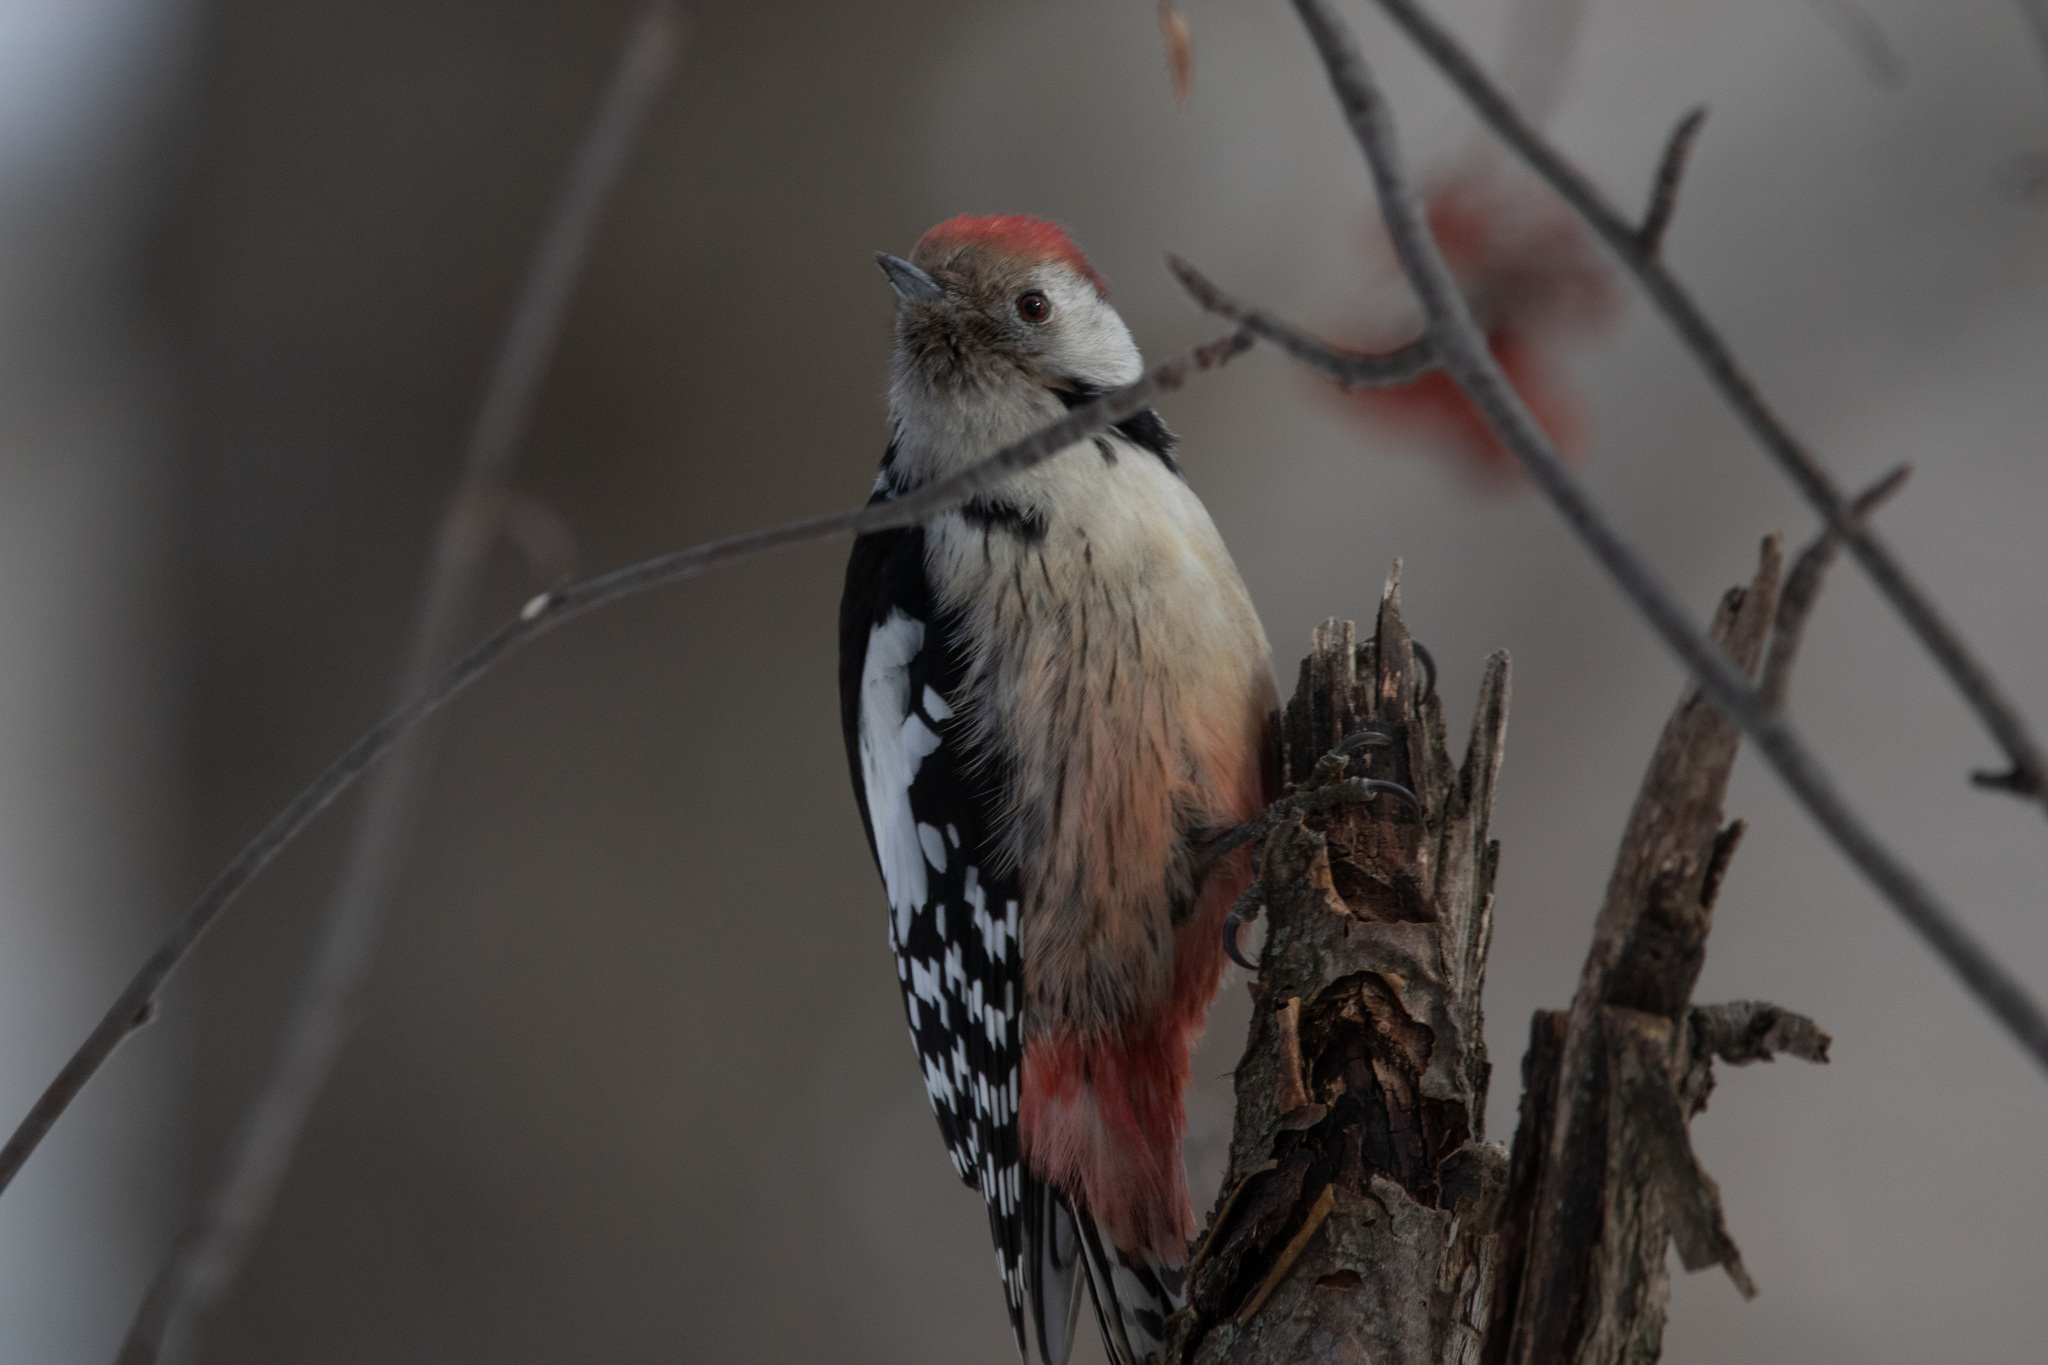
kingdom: Animalia
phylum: Chordata
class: Aves
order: Piciformes
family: Picidae
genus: Dendrocoptes
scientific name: Dendrocoptes medius
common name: Middle spotted woodpecker
